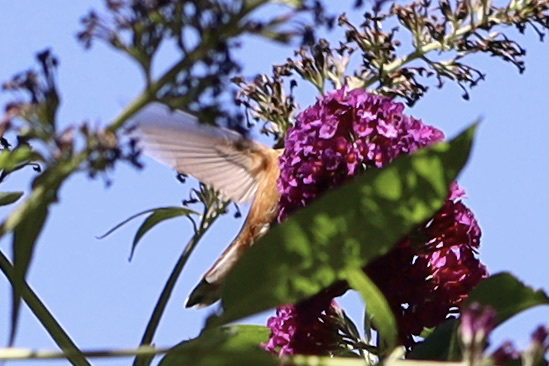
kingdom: Animalia
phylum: Chordata
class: Aves
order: Apodiformes
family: Trochilidae
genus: Selasphorus
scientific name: Selasphorus rufus
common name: Rufous hummingbird
